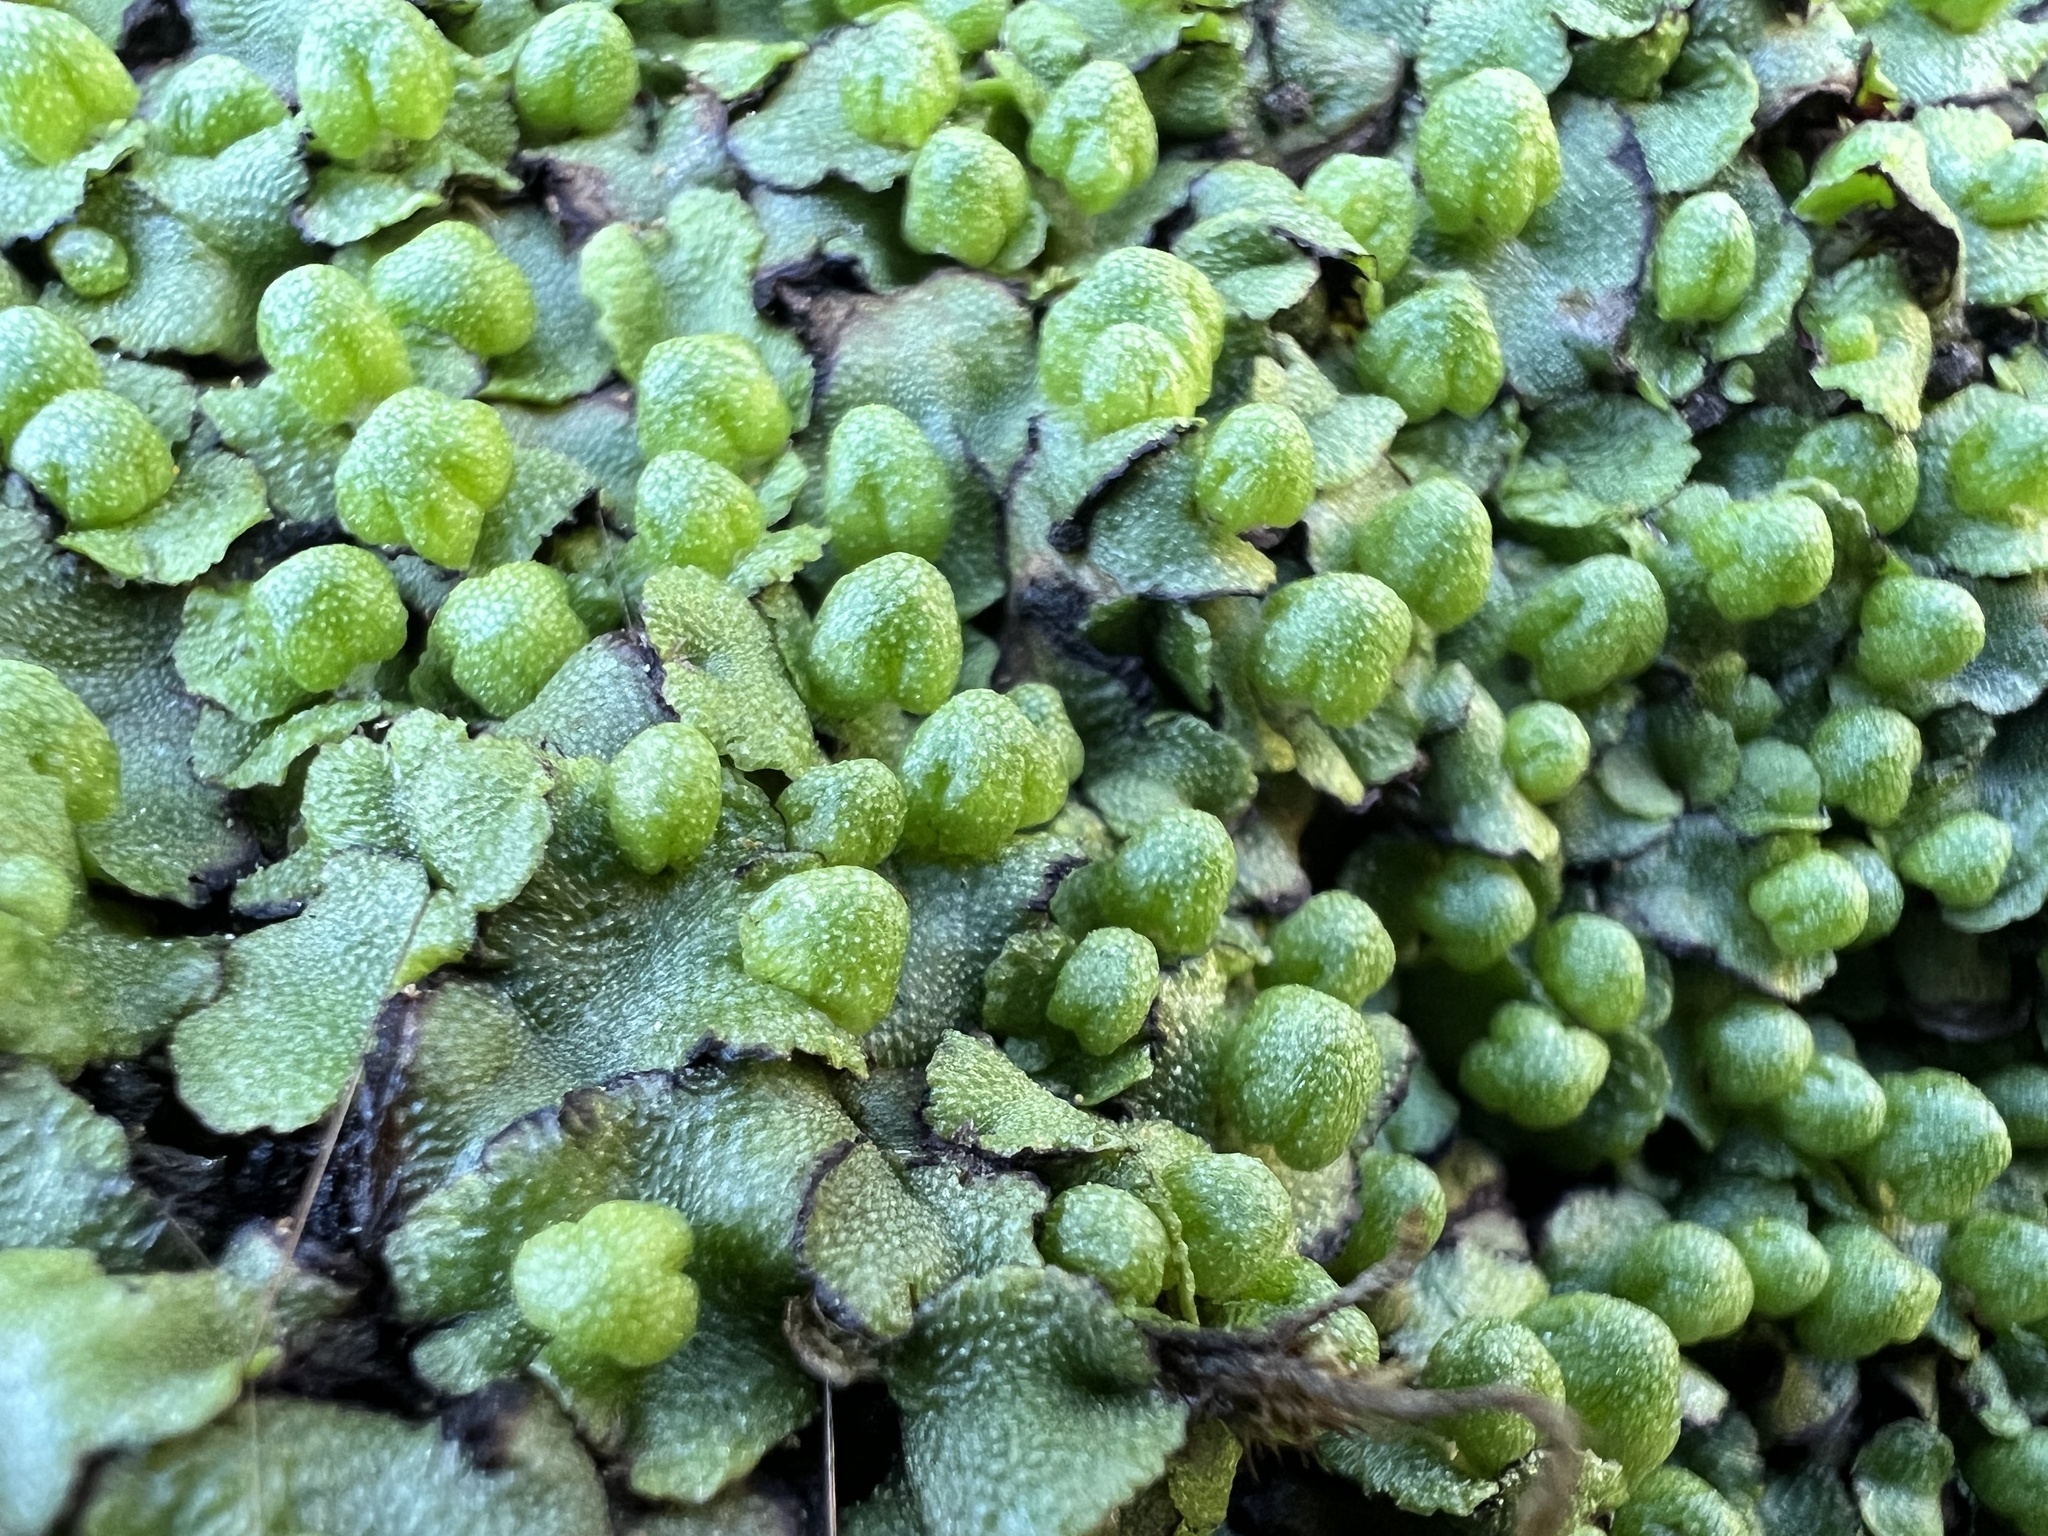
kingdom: Plantae
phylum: Marchantiophyta
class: Marchantiopsida
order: Marchantiales
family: Aytoniaceae
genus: Asterella
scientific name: Asterella californica
